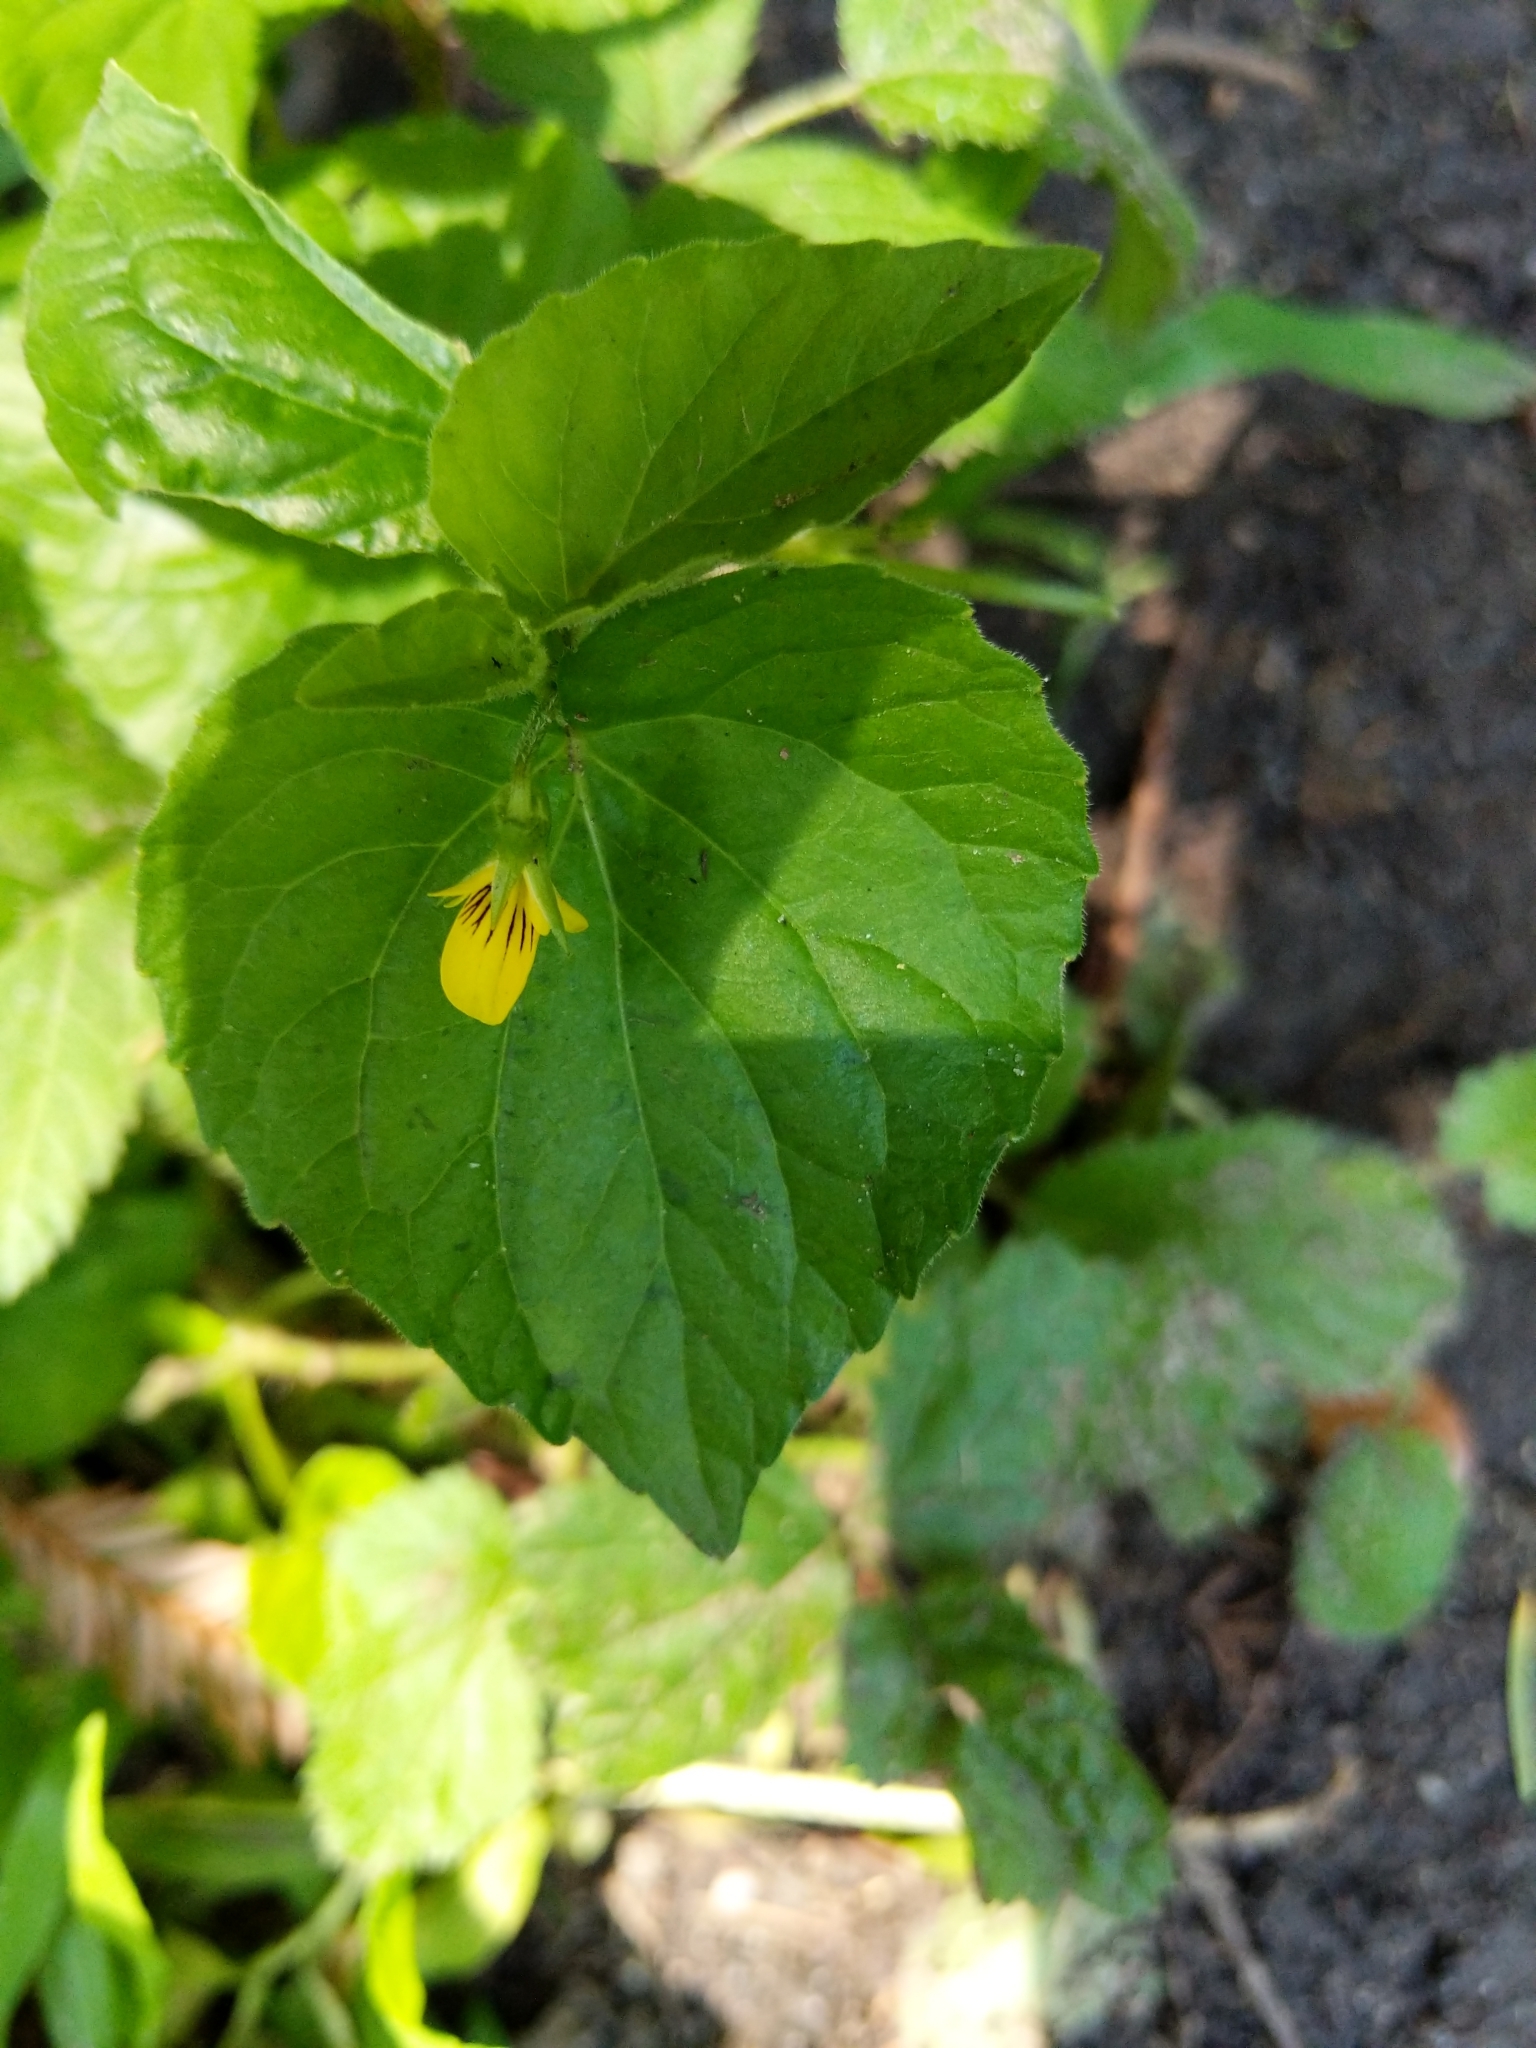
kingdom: Plantae
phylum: Tracheophyta
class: Magnoliopsida
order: Malpighiales
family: Violaceae
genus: Viola
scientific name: Viola glabella
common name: Stream violet
